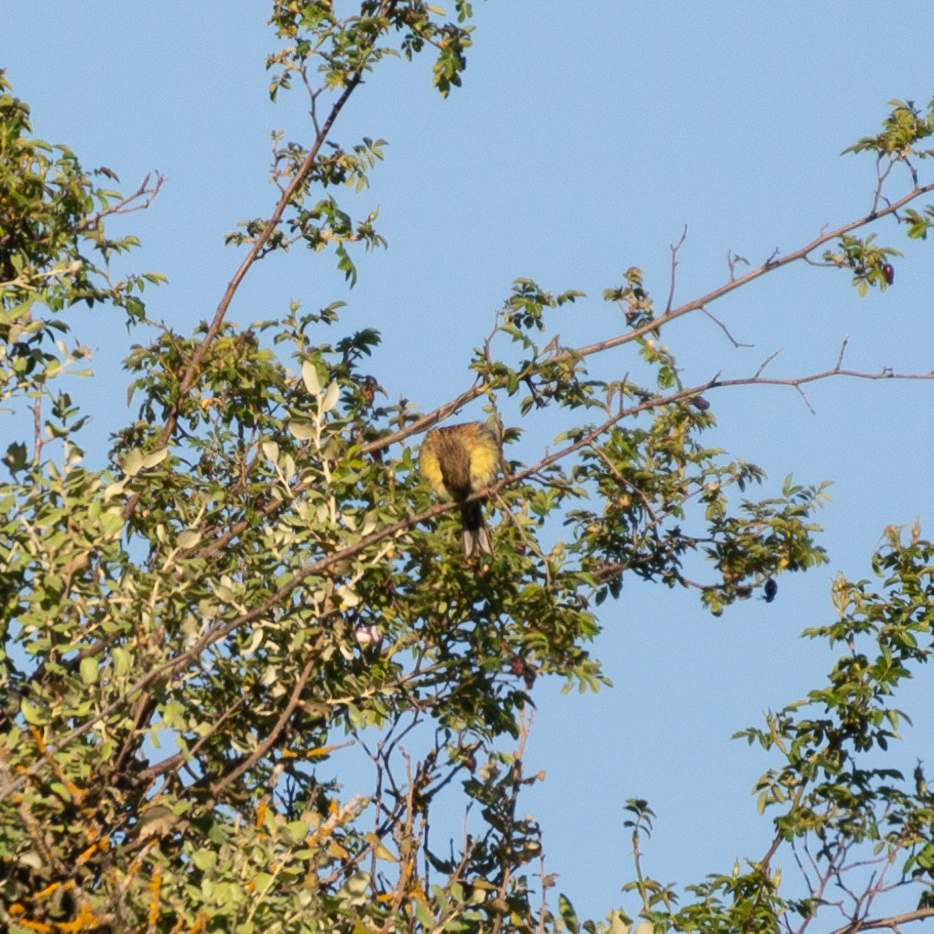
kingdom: Animalia
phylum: Chordata
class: Aves
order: Passeriformes
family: Emberizidae
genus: Emberiza
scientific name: Emberiza cirlus
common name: Cirl bunting
